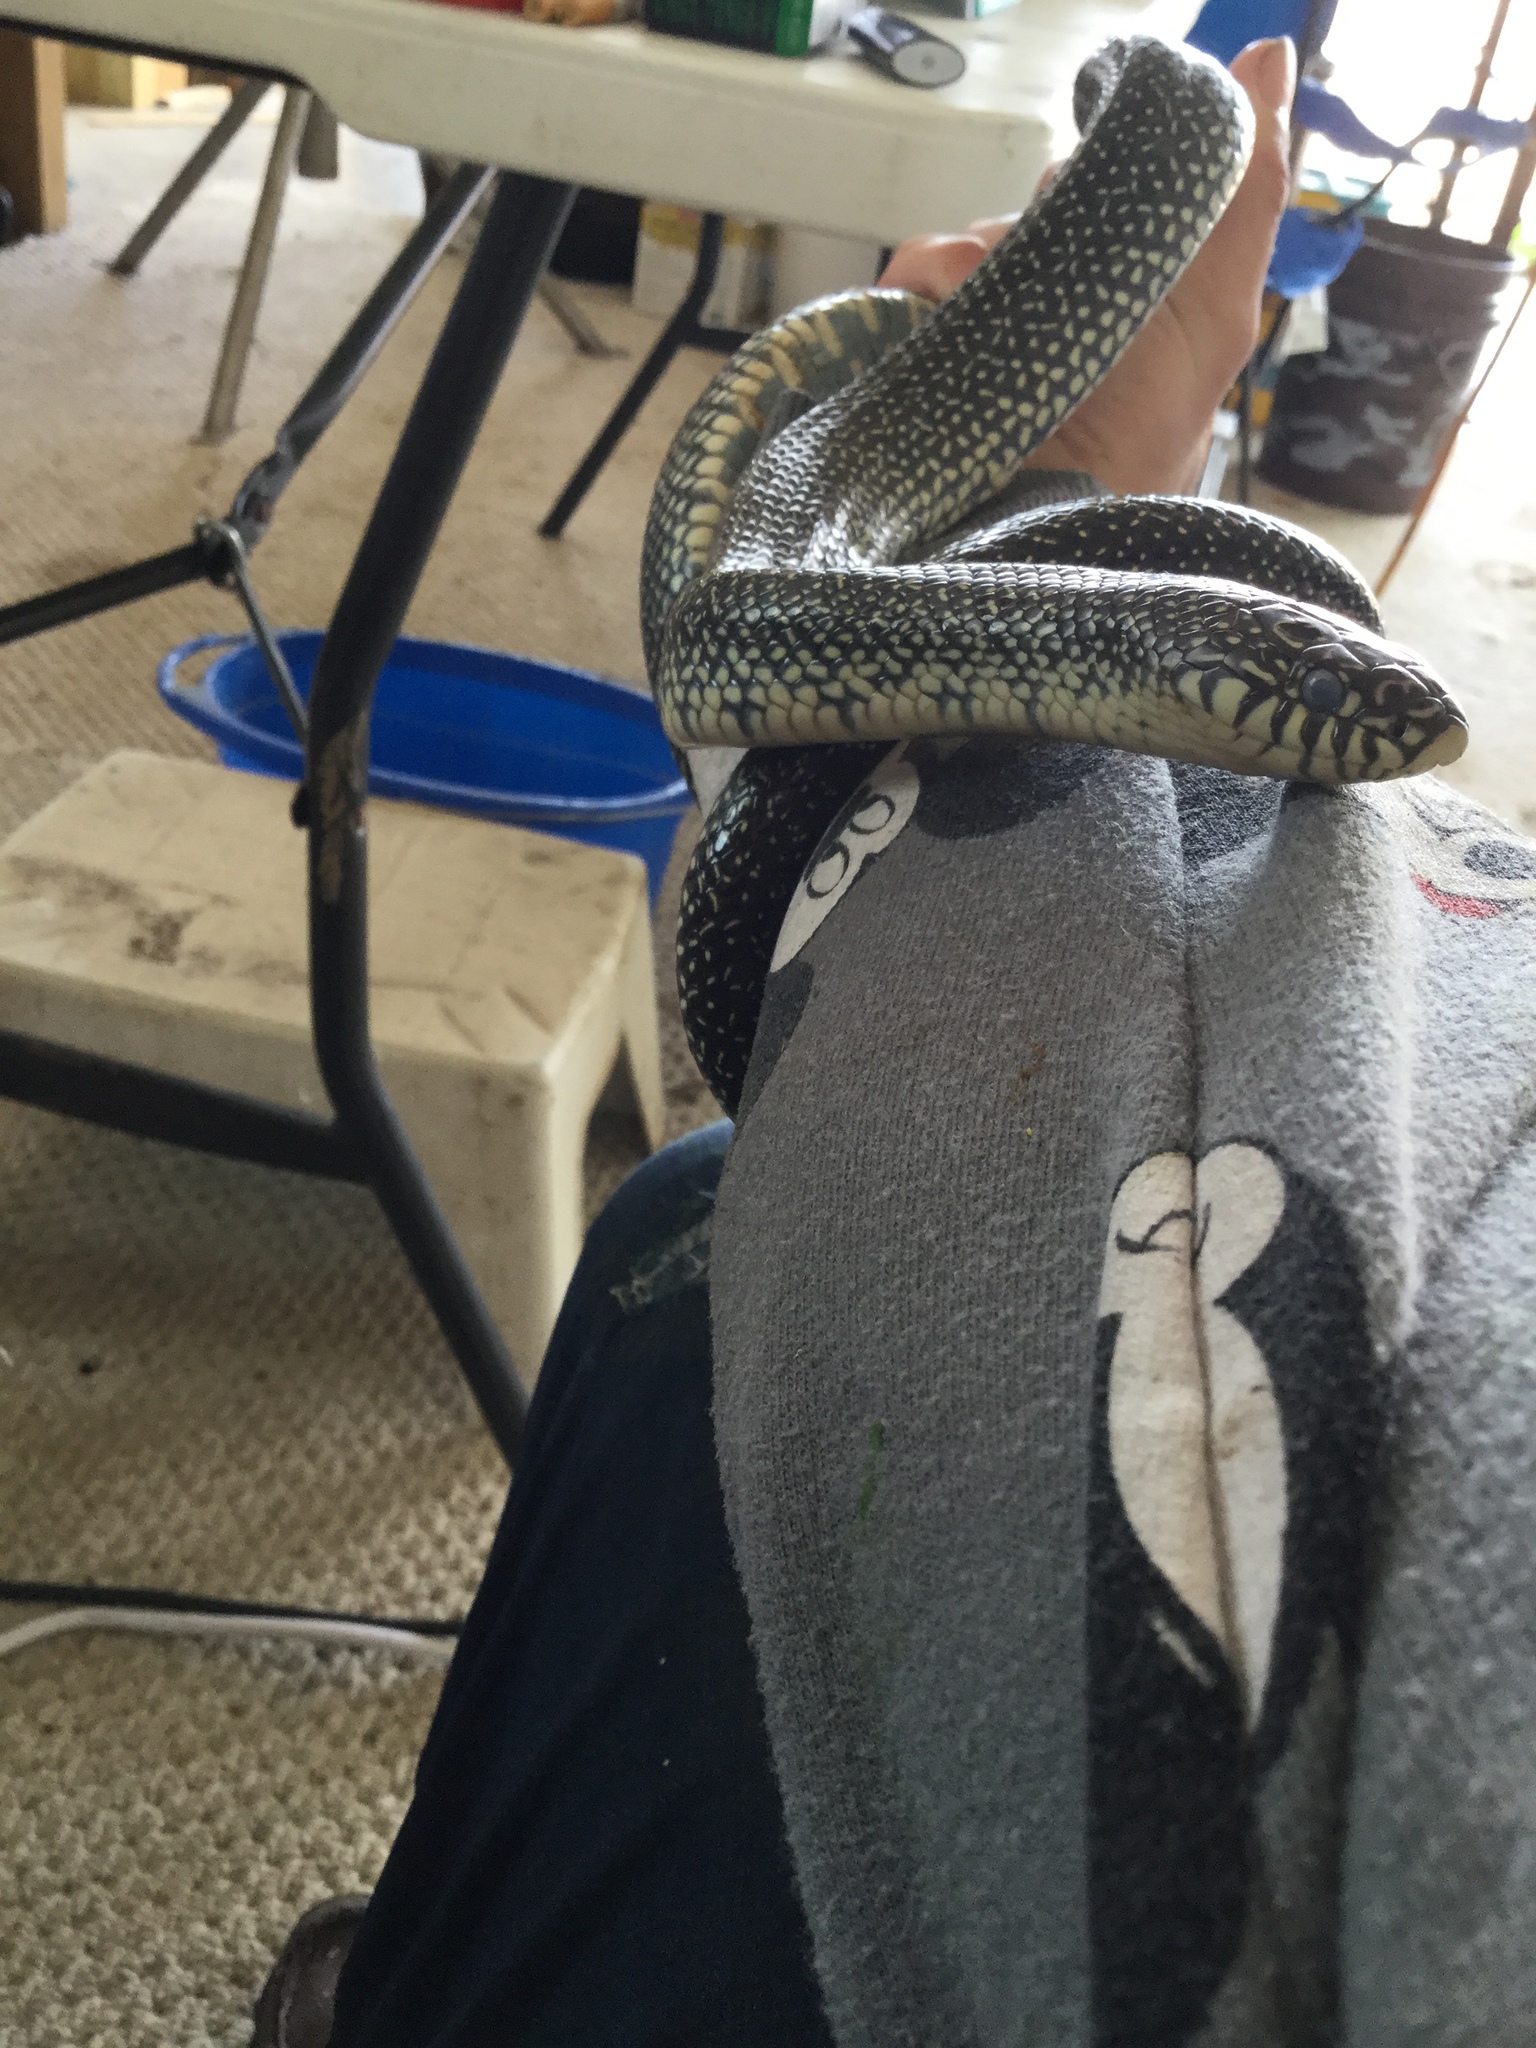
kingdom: Animalia
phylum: Chordata
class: Squamata
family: Colubridae
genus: Lampropeltis
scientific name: Lampropeltis holbrooki
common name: Speckled kingsnake
